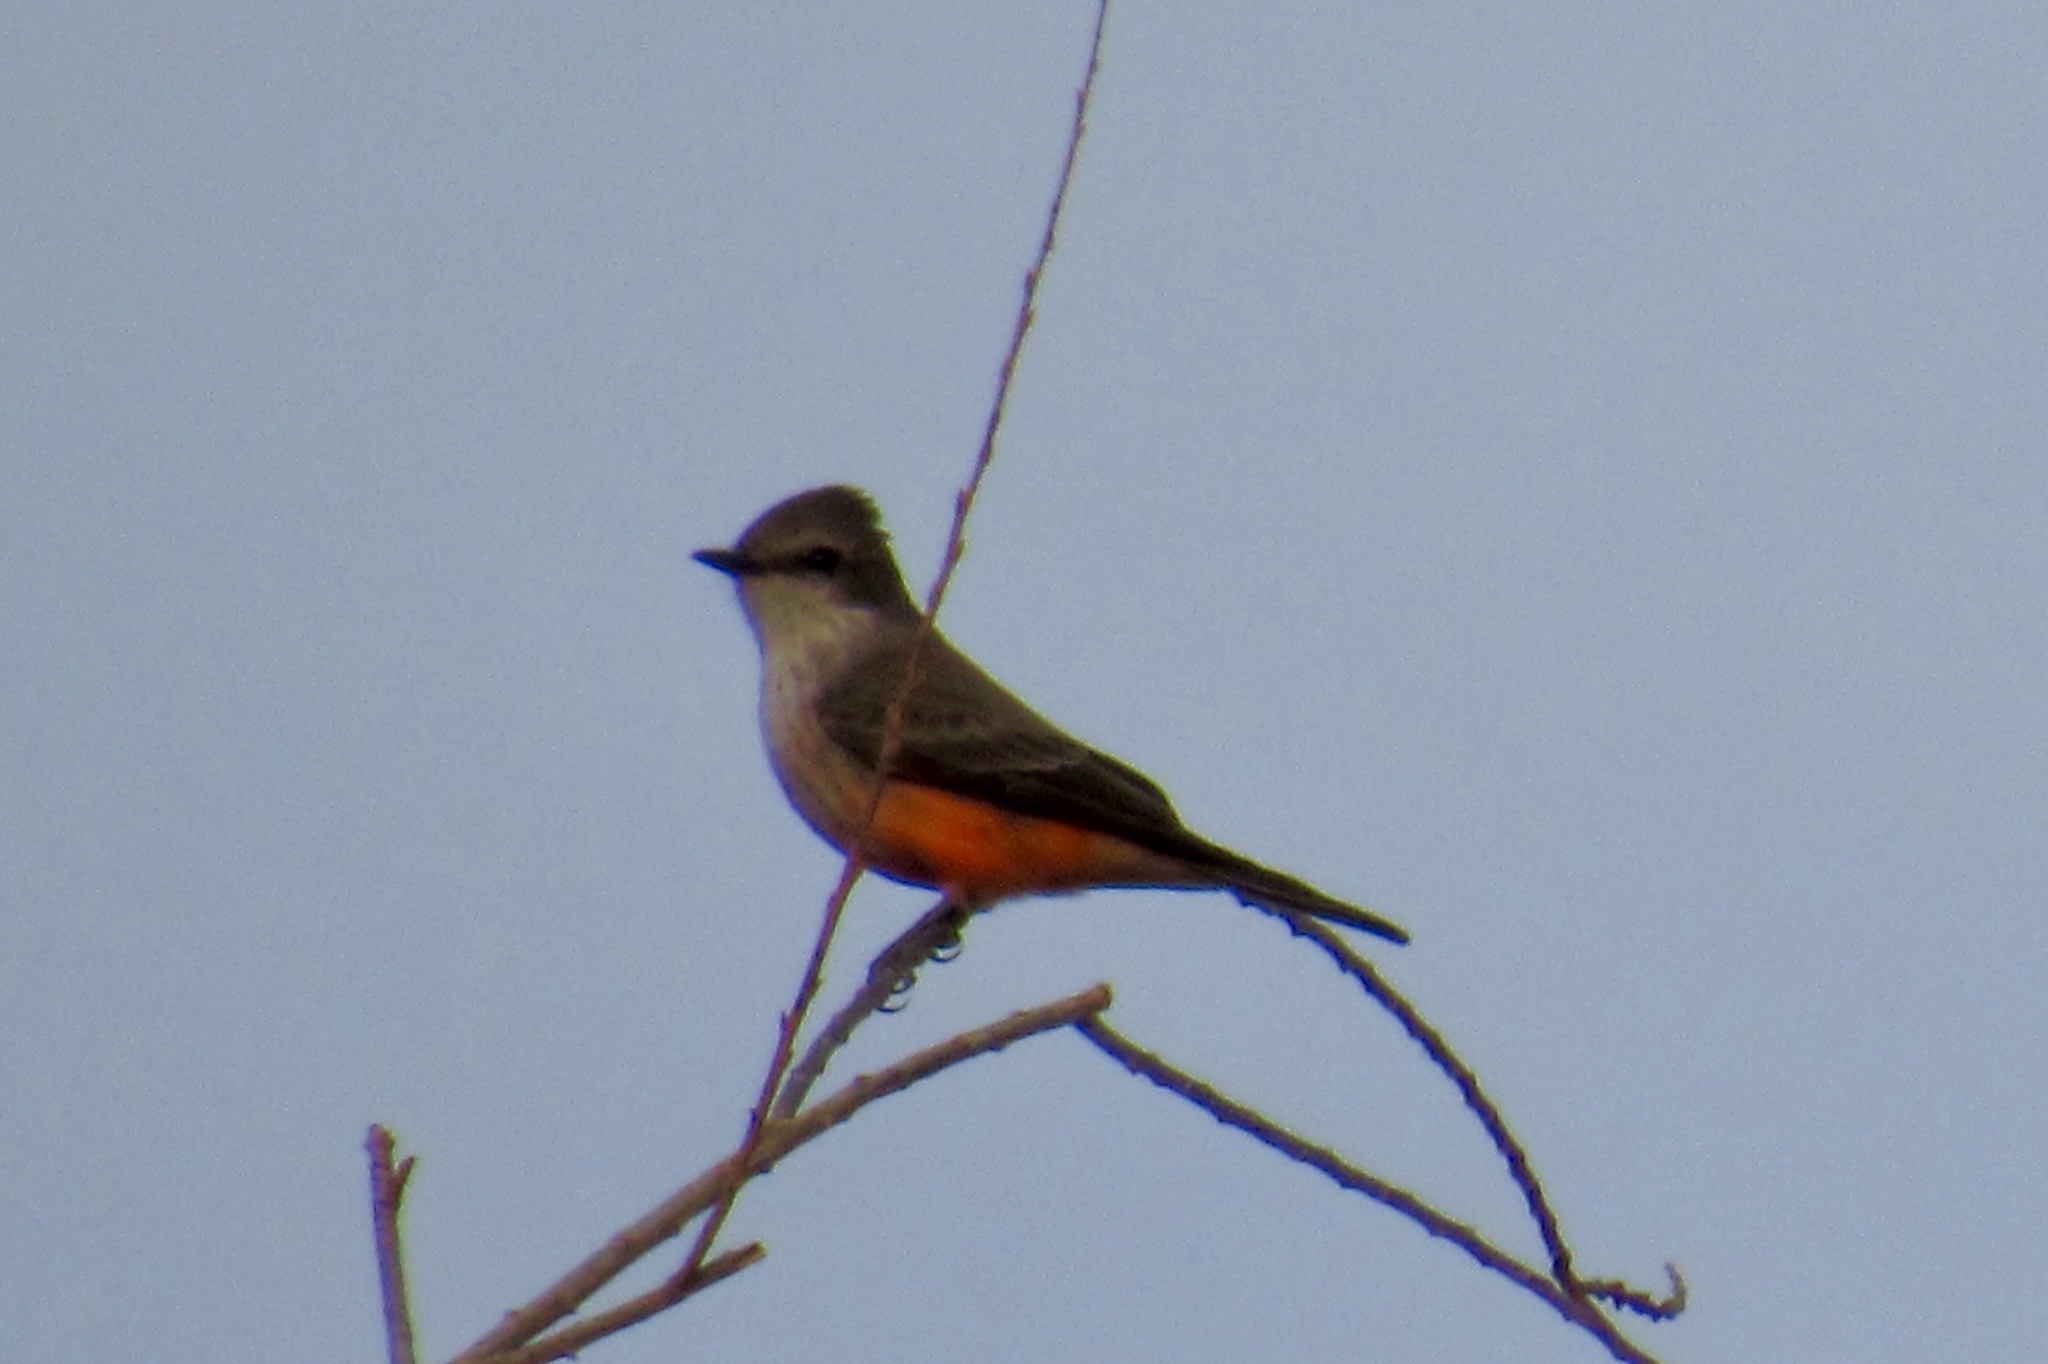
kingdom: Animalia
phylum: Chordata
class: Aves
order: Passeriformes
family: Tyrannidae
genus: Pyrocephalus
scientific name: Pyrocephalus rubinus
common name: Vermilion flycatcher
